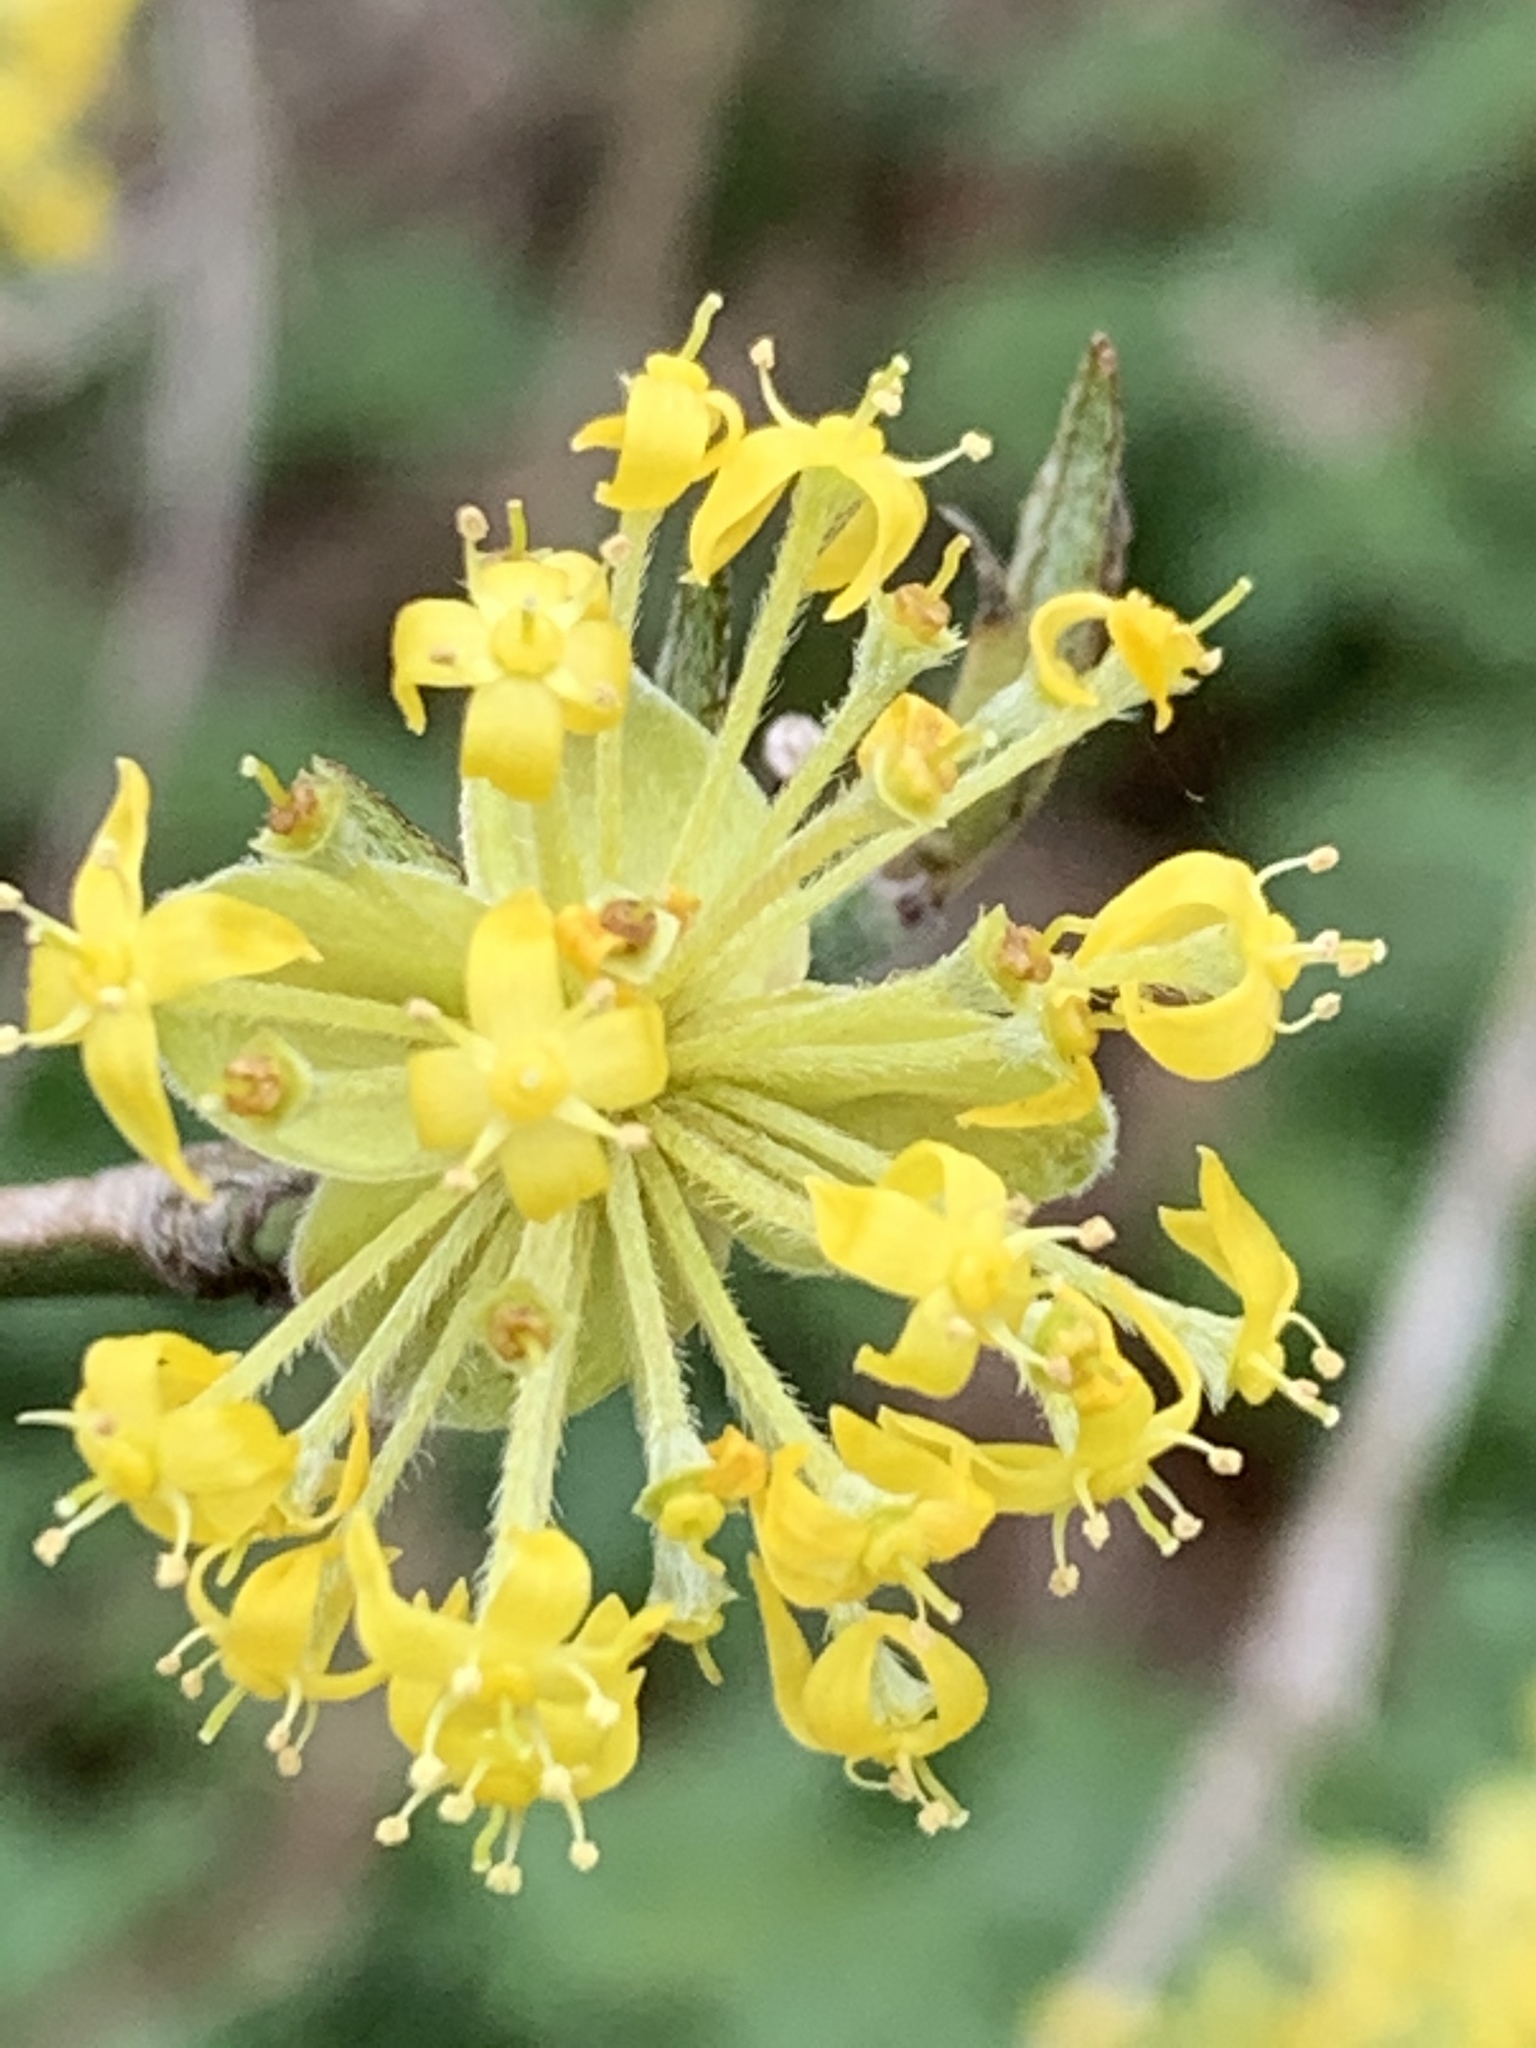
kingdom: Plantae
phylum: Tracheophyta
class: Magnoliopsida
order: Cornales
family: Cornaceae
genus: Cornus
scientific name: Cornus mas
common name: Cornelian-cherry
